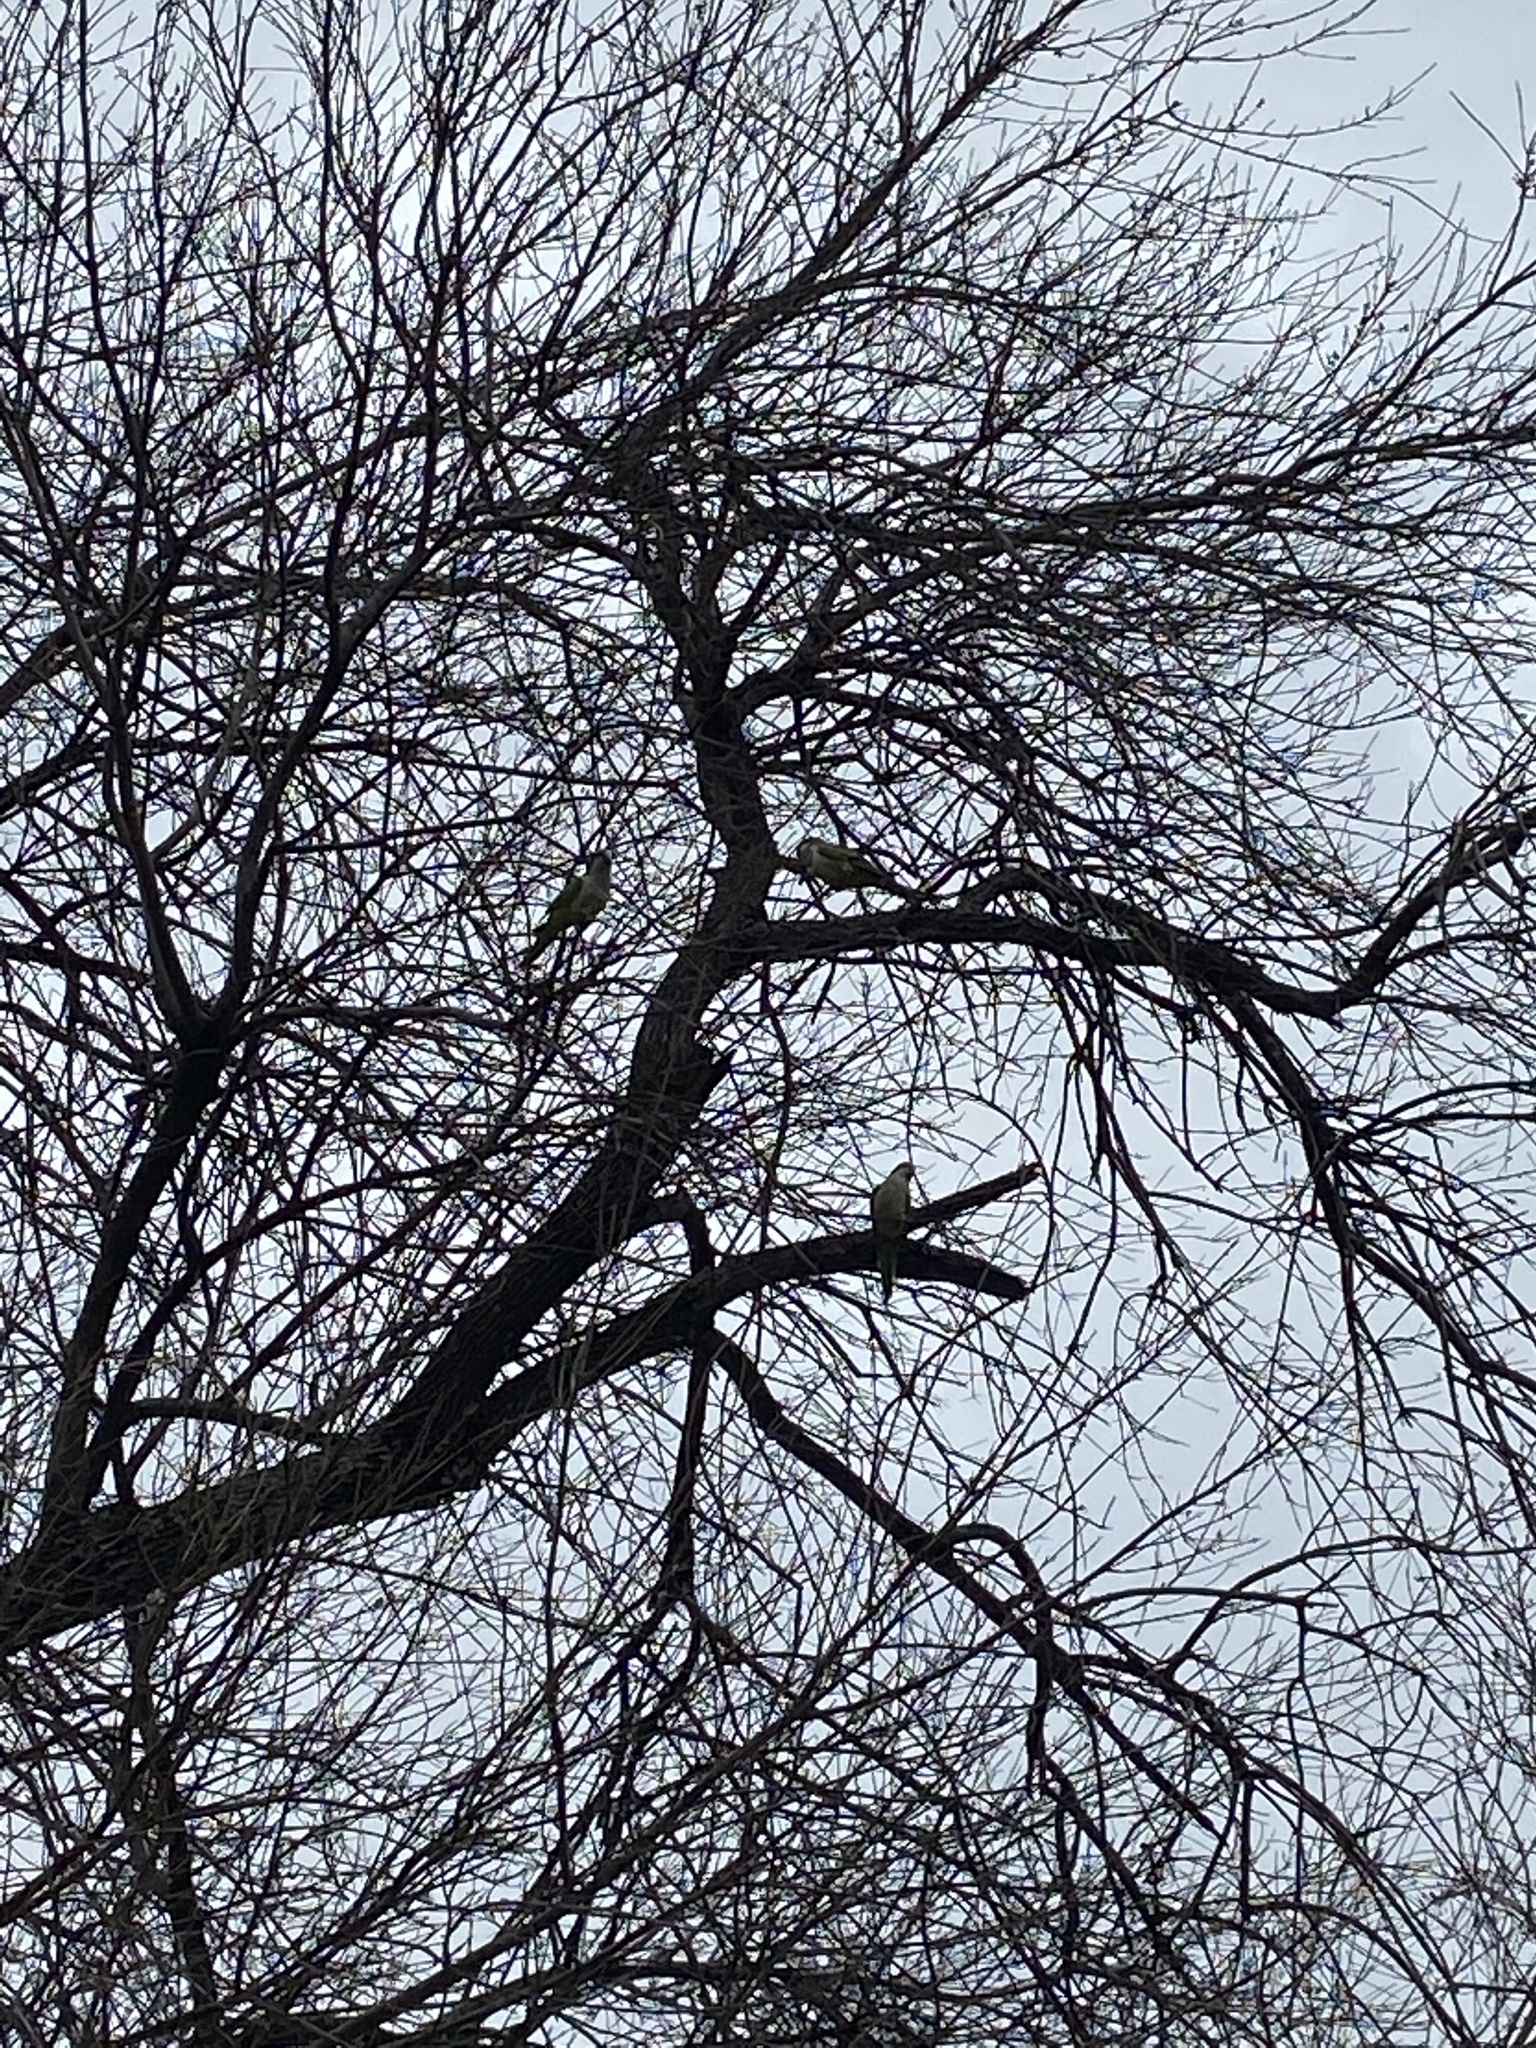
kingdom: Animalia
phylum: Chordata
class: Aves
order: Psittaciformes
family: Psittacidae
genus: Myiopsitta
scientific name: Myiopsitta monachus
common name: Monk parakeet
